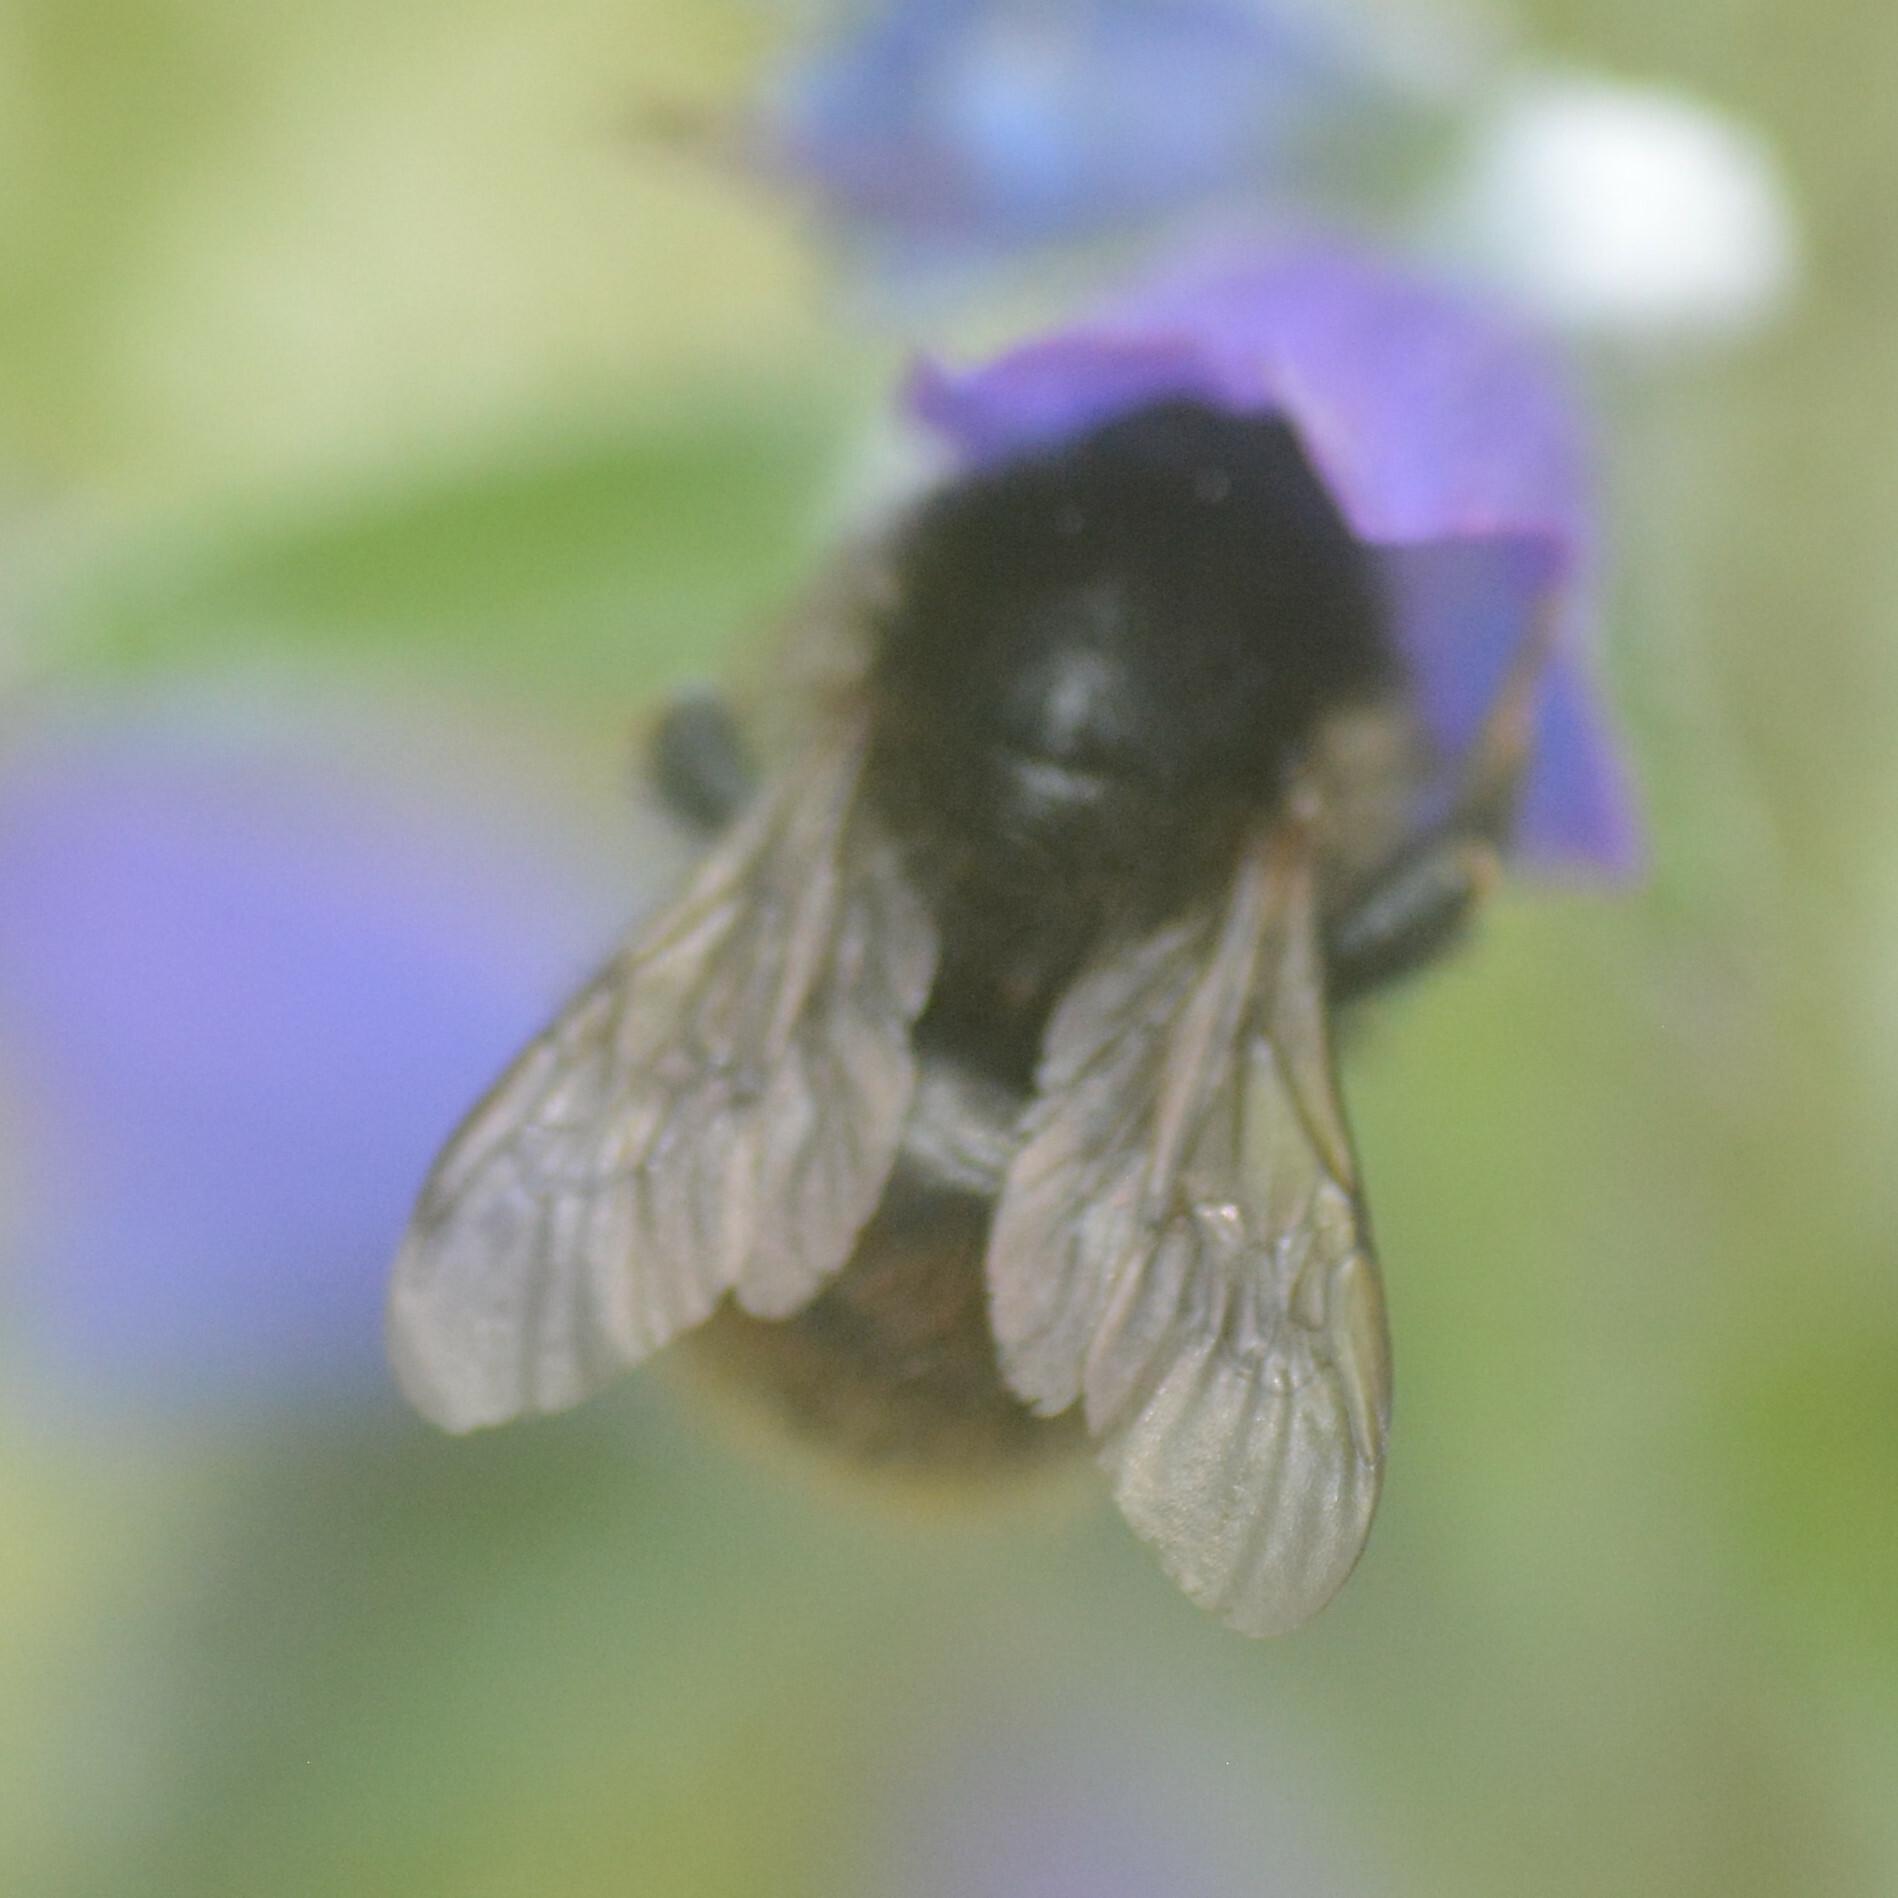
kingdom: Animalia
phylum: Arthropoda
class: Insecta
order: Hymenoptera
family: Apidae
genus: Bombus
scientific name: Bombus humilis
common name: Brown-banded carder-bee
